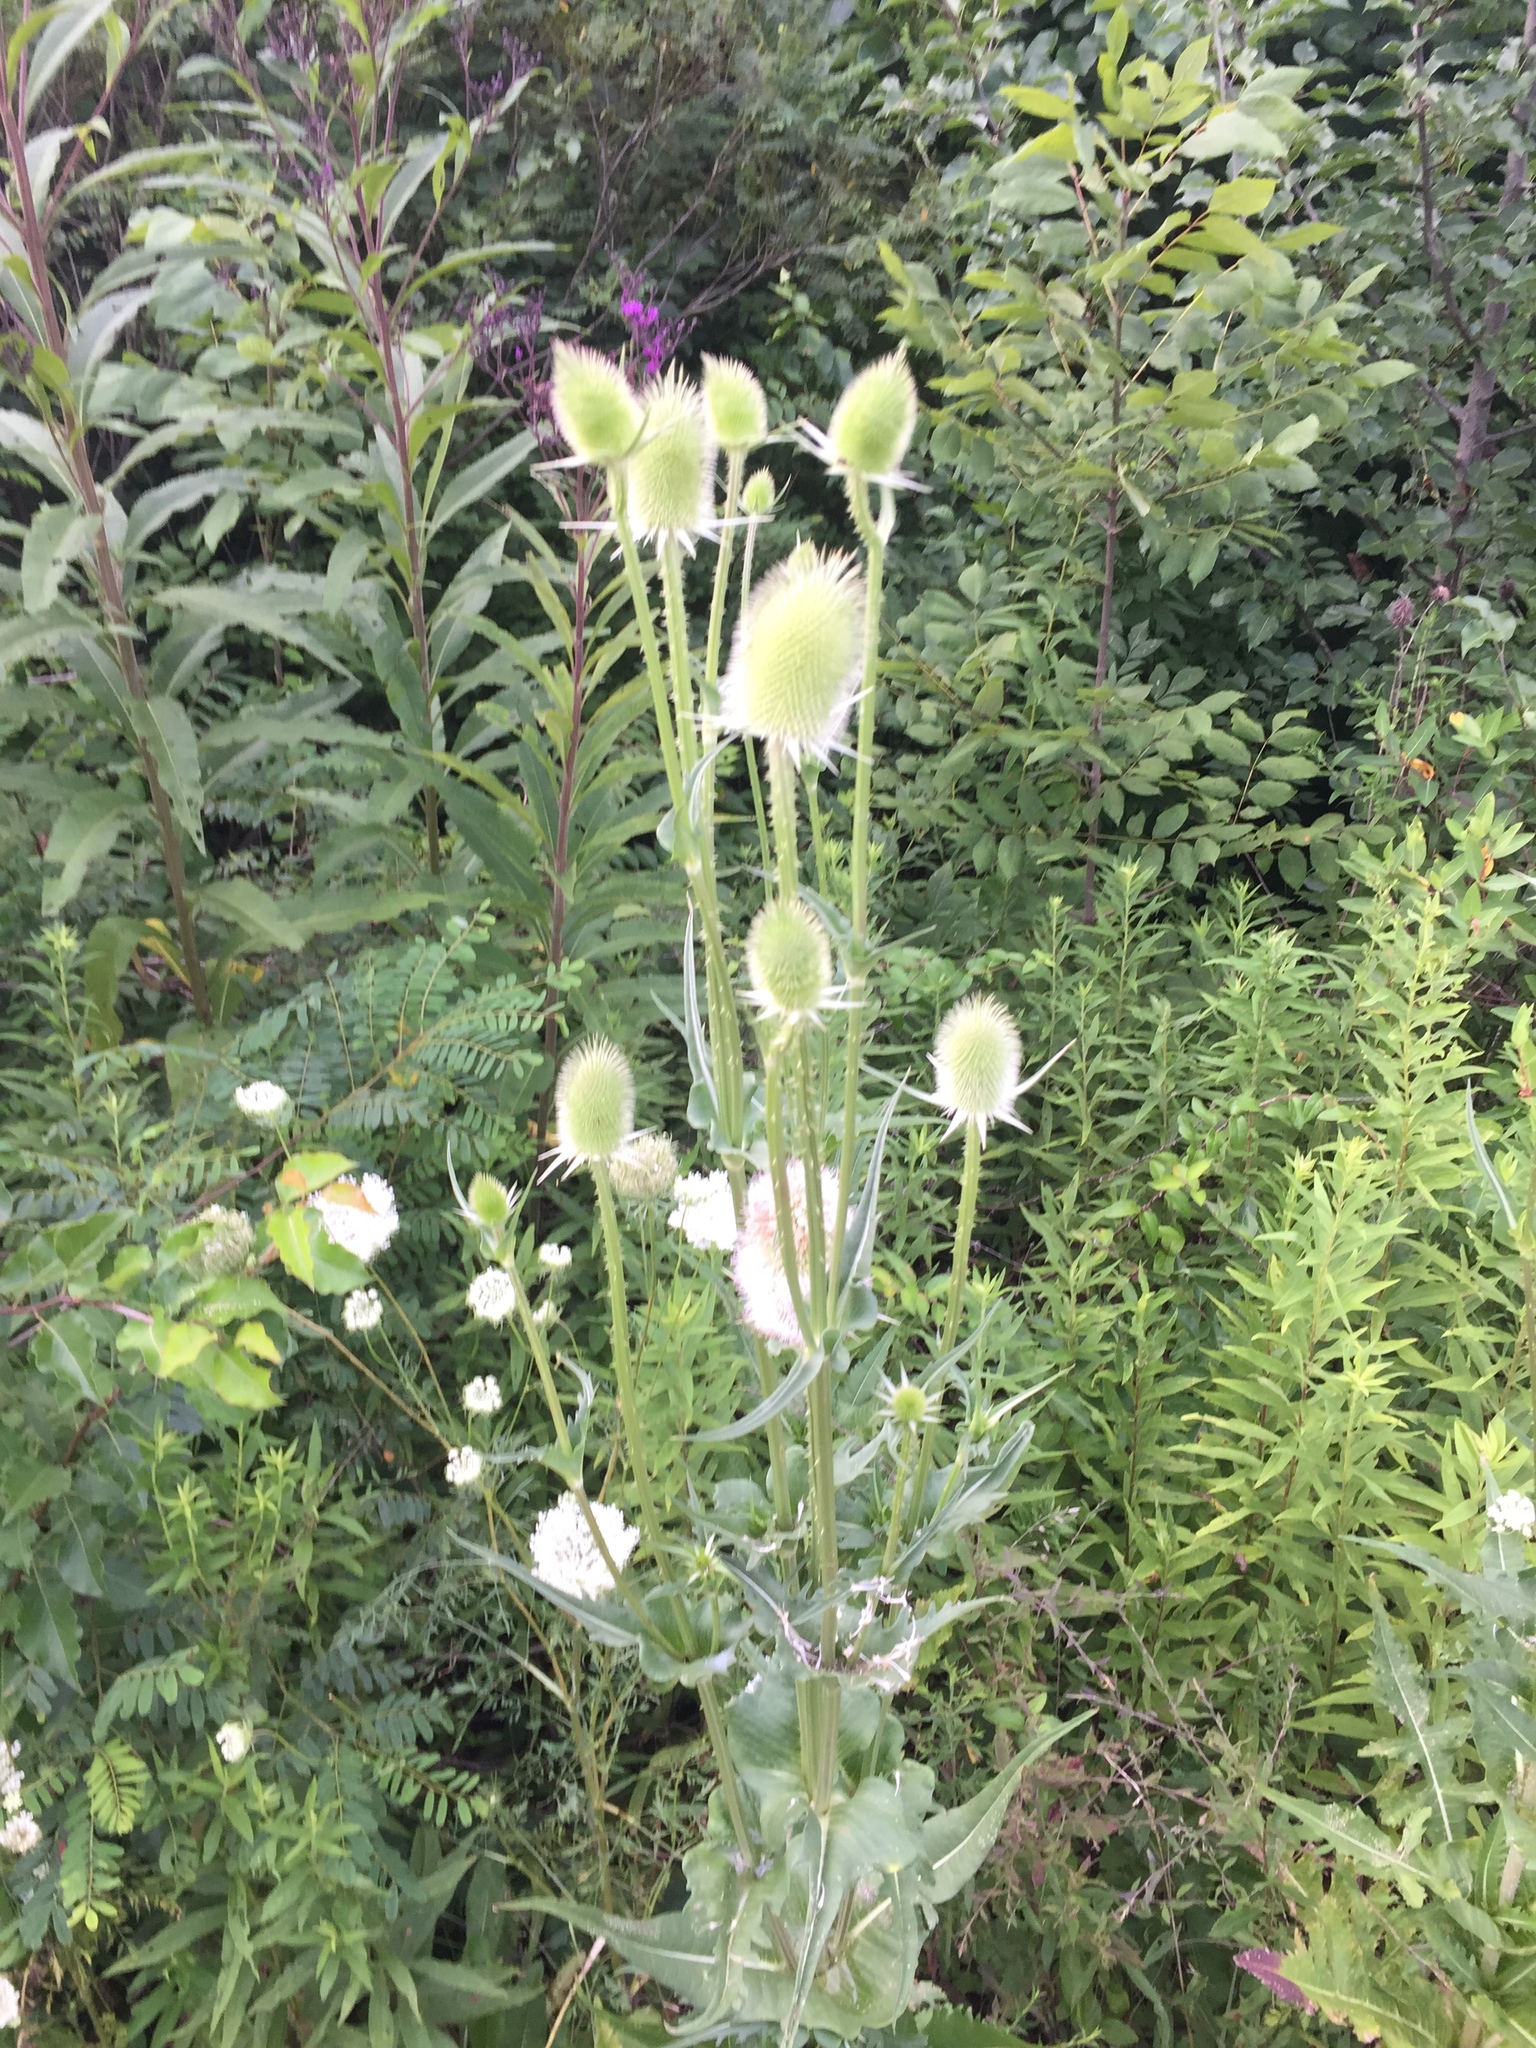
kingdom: Plantae
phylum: Tracheophyta
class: Magnoliopsida
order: Dipsacales
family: Caprifoliaceae
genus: Dipsacus
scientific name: Dipsacus laciniatus
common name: Cut-leaved teasel
